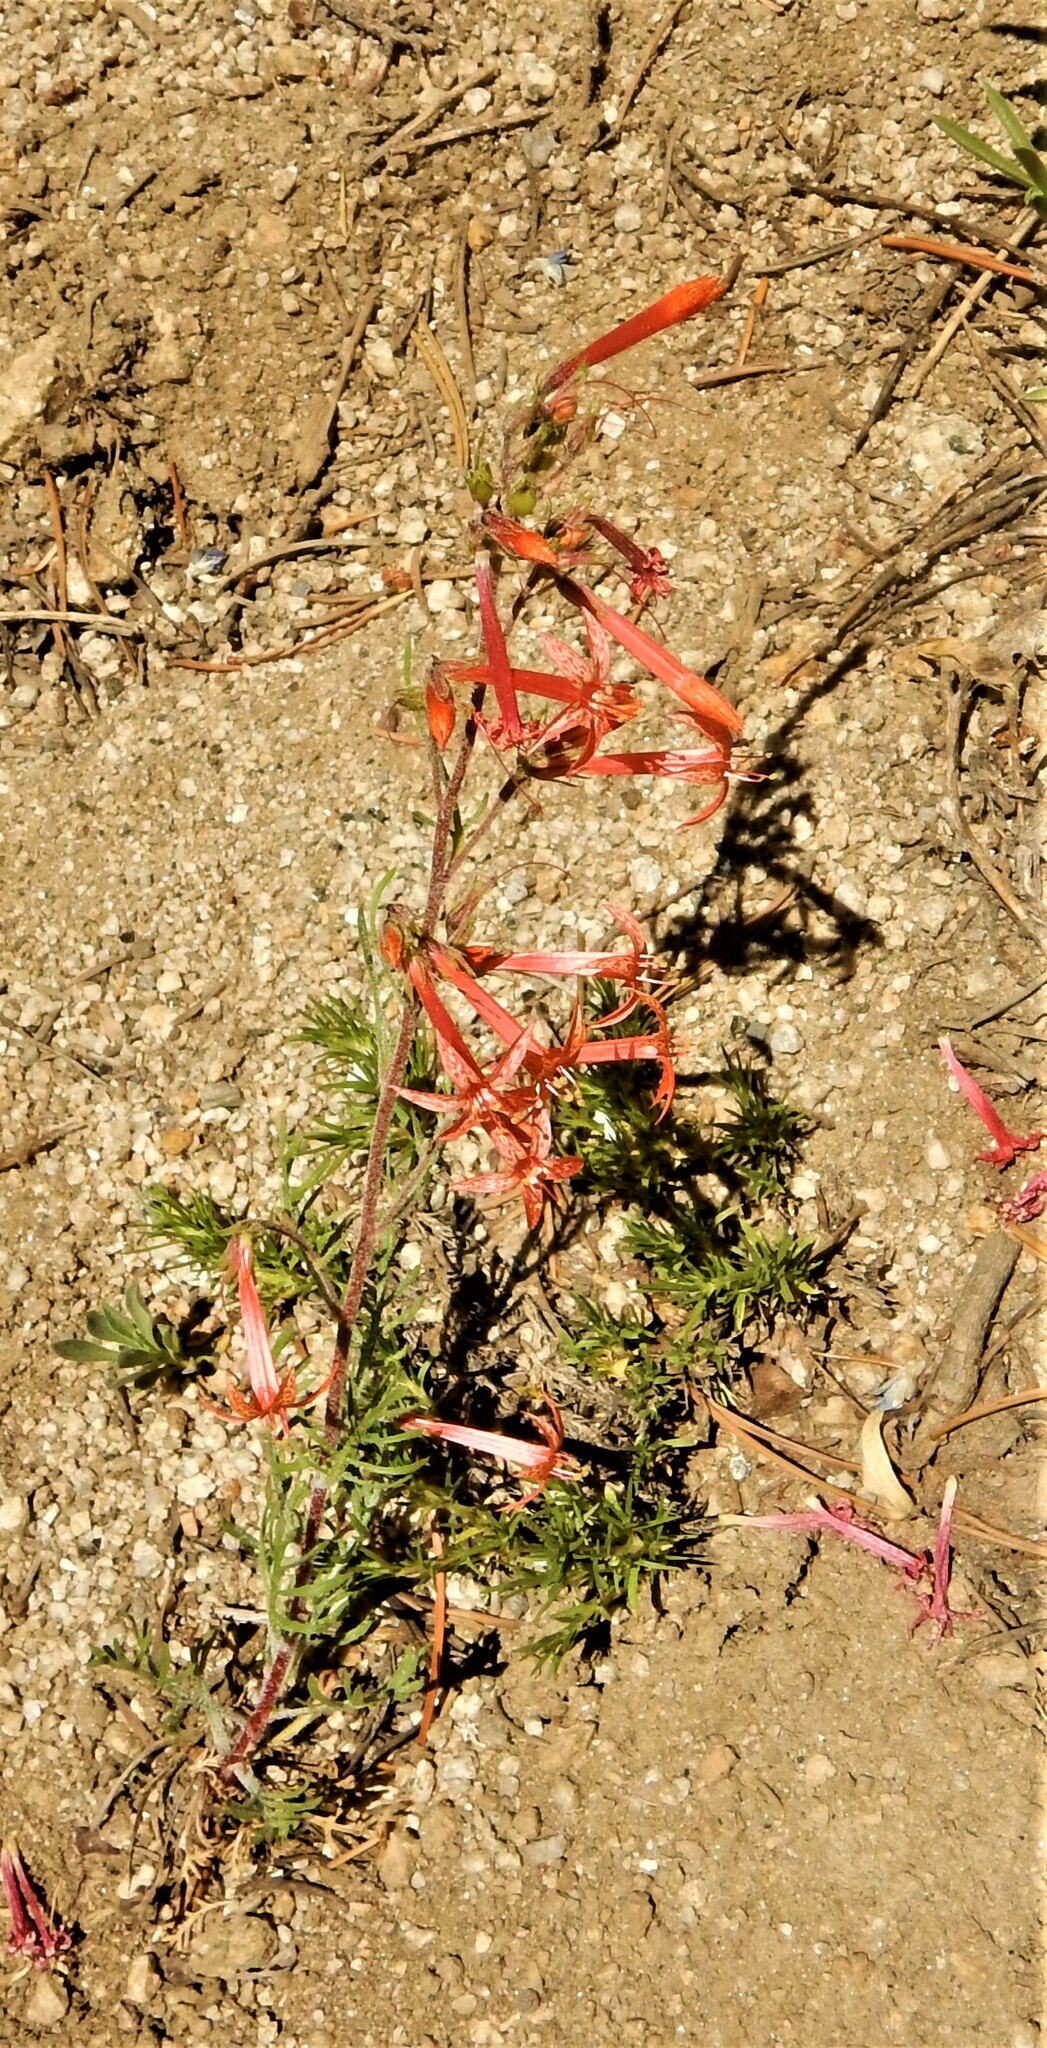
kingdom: Plantae
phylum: Tracheophyta
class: Magnoliopsida
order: Ericales
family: Polemoniaceae
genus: Ipomopsis
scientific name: Ipomopsis aggregata
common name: Scarlet gilia
